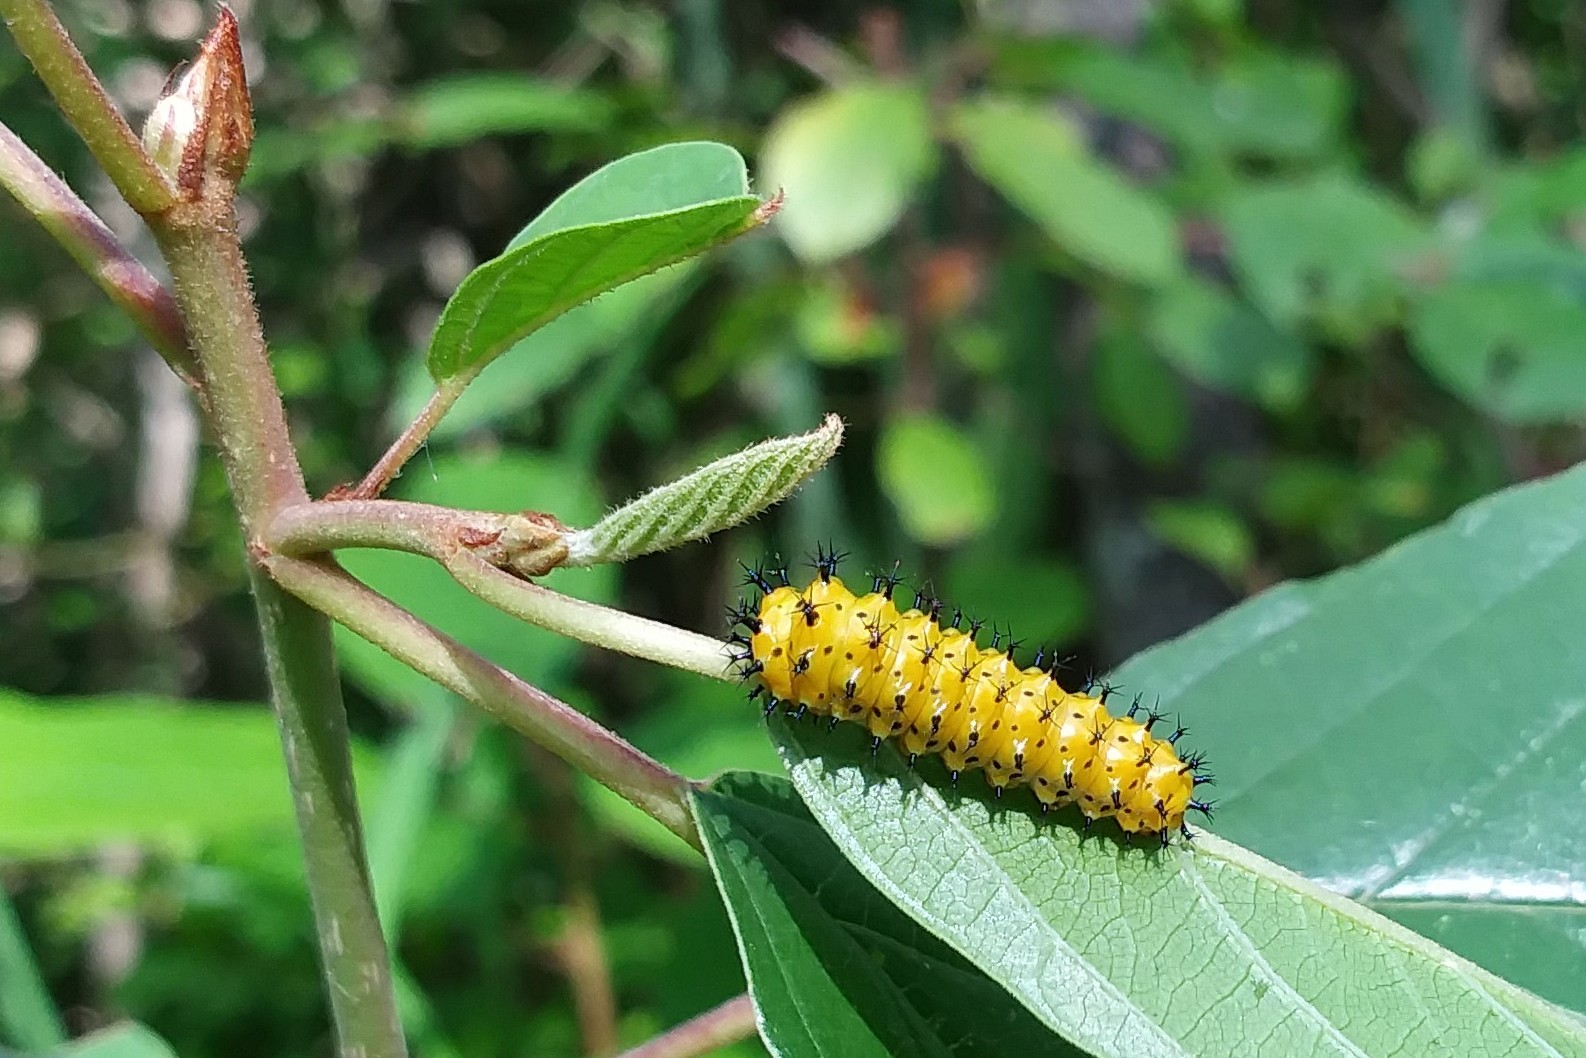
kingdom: Animalia
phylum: Arthropoda
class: Insecta
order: Lepidoptera
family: Saturniidae
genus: Hyalophora
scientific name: Hyalophora cecropia
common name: Cecropia silkmoth
